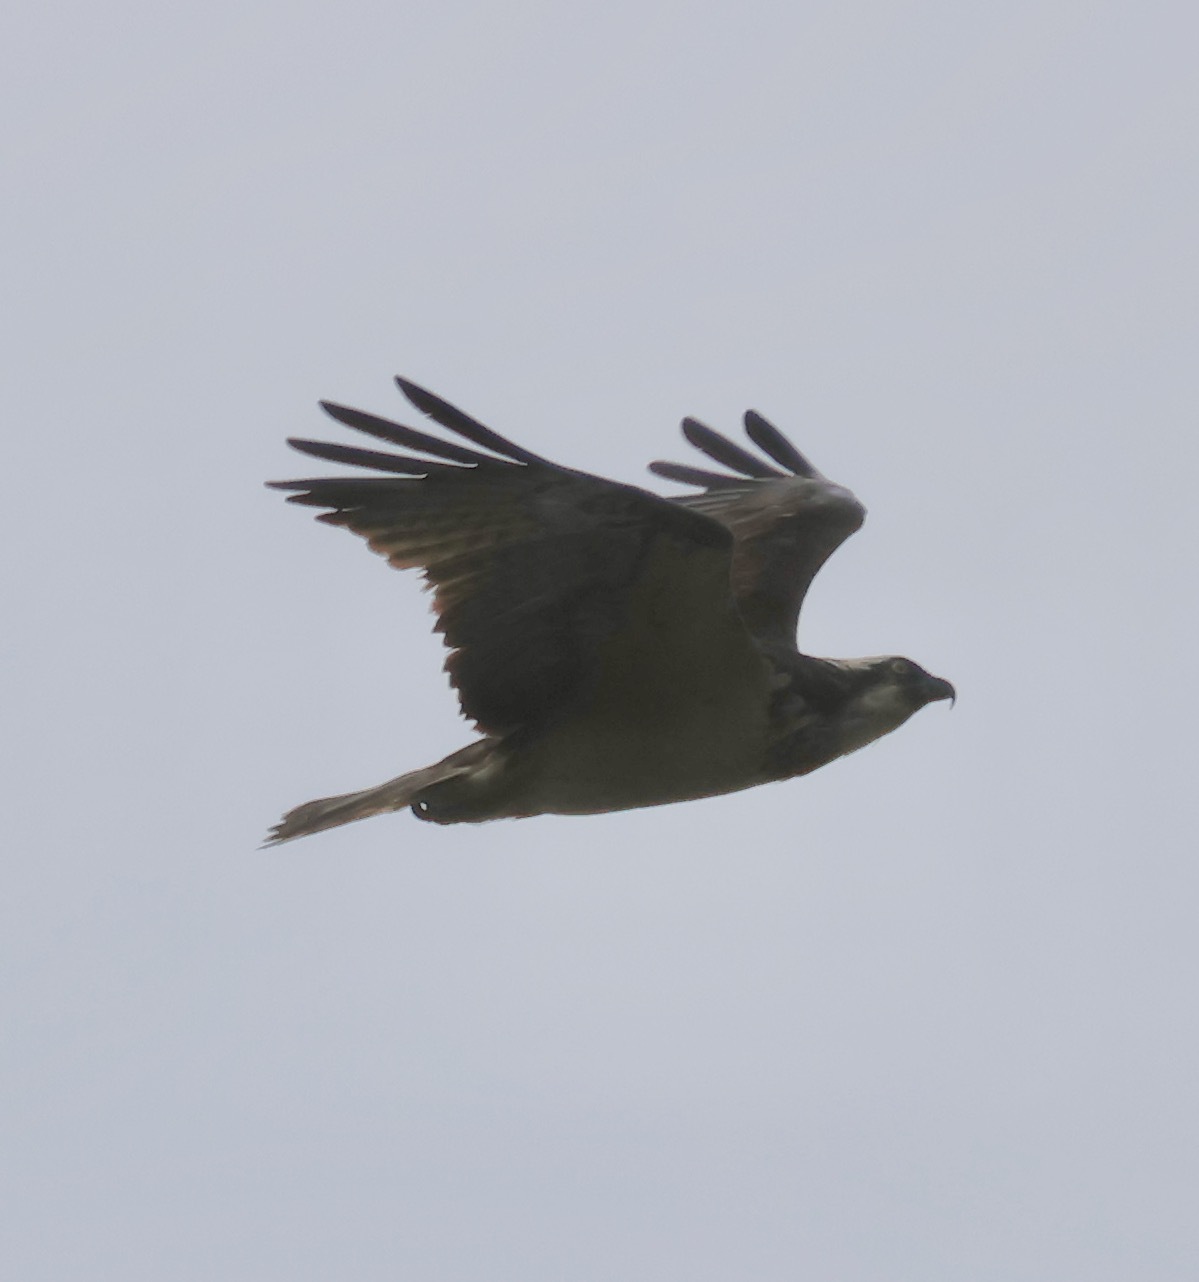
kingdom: Animalia
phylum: Chordata
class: Aves
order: Accipitriformes
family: Pandionidae
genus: Pandion
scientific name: Pandion haliaetus
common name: Osprey
